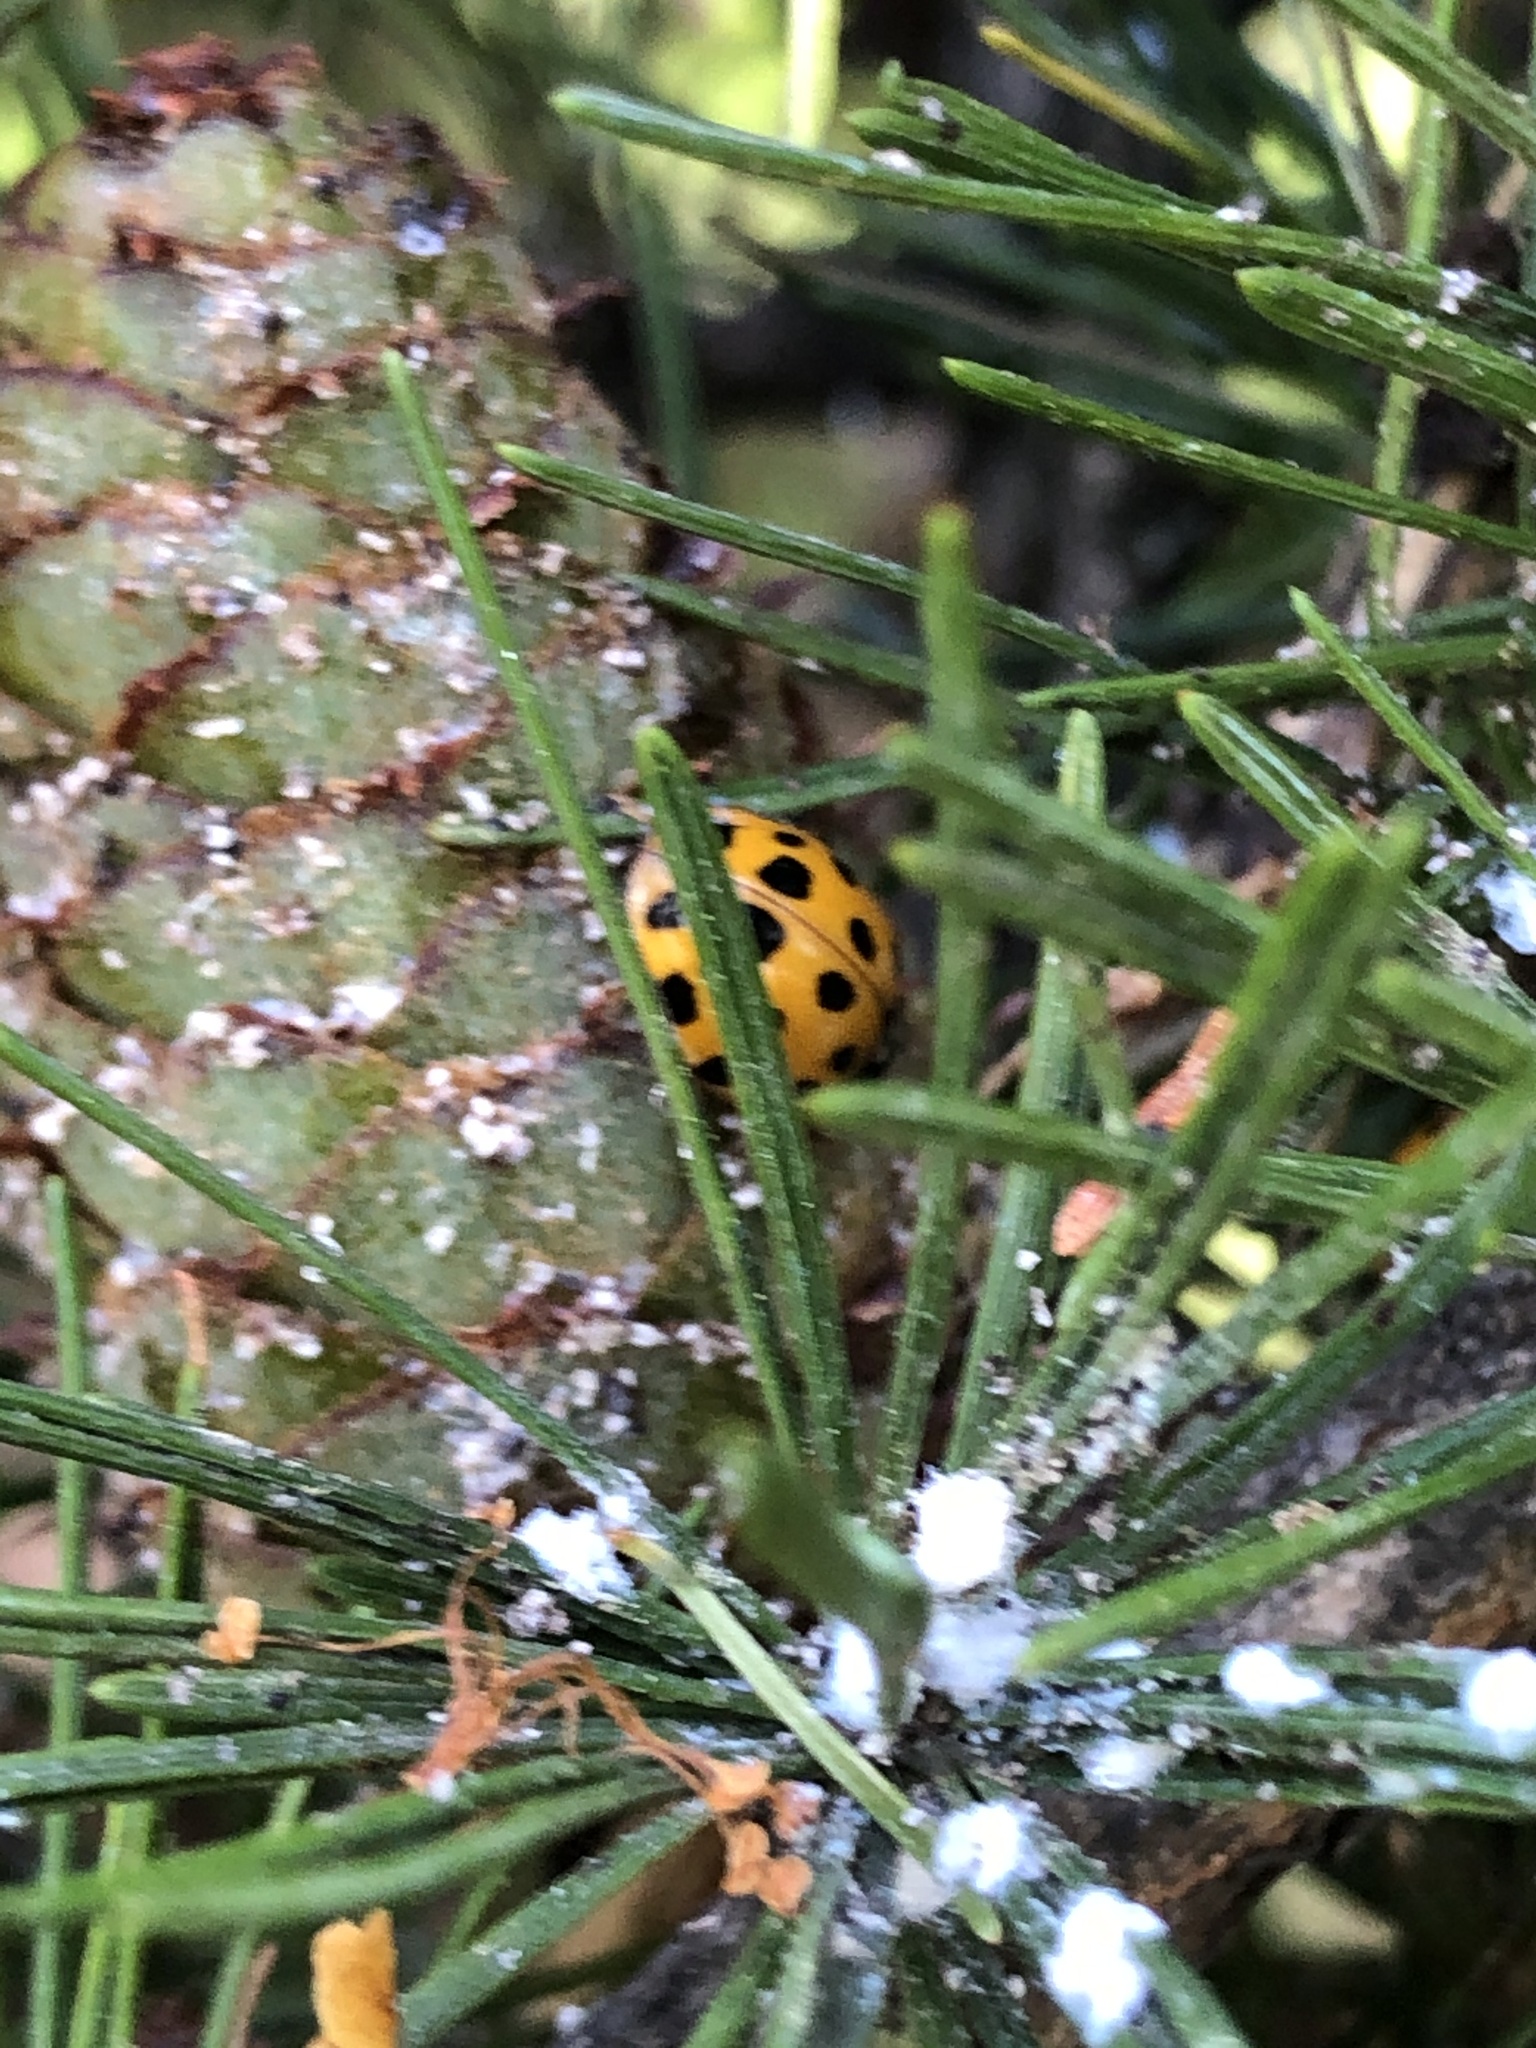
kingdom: Animalia
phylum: Arthropoda
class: Insecta
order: Coleoptera
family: Coccinellidae
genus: Harmonia
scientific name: Harmonia axyridis
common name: Harlequin ladybird
